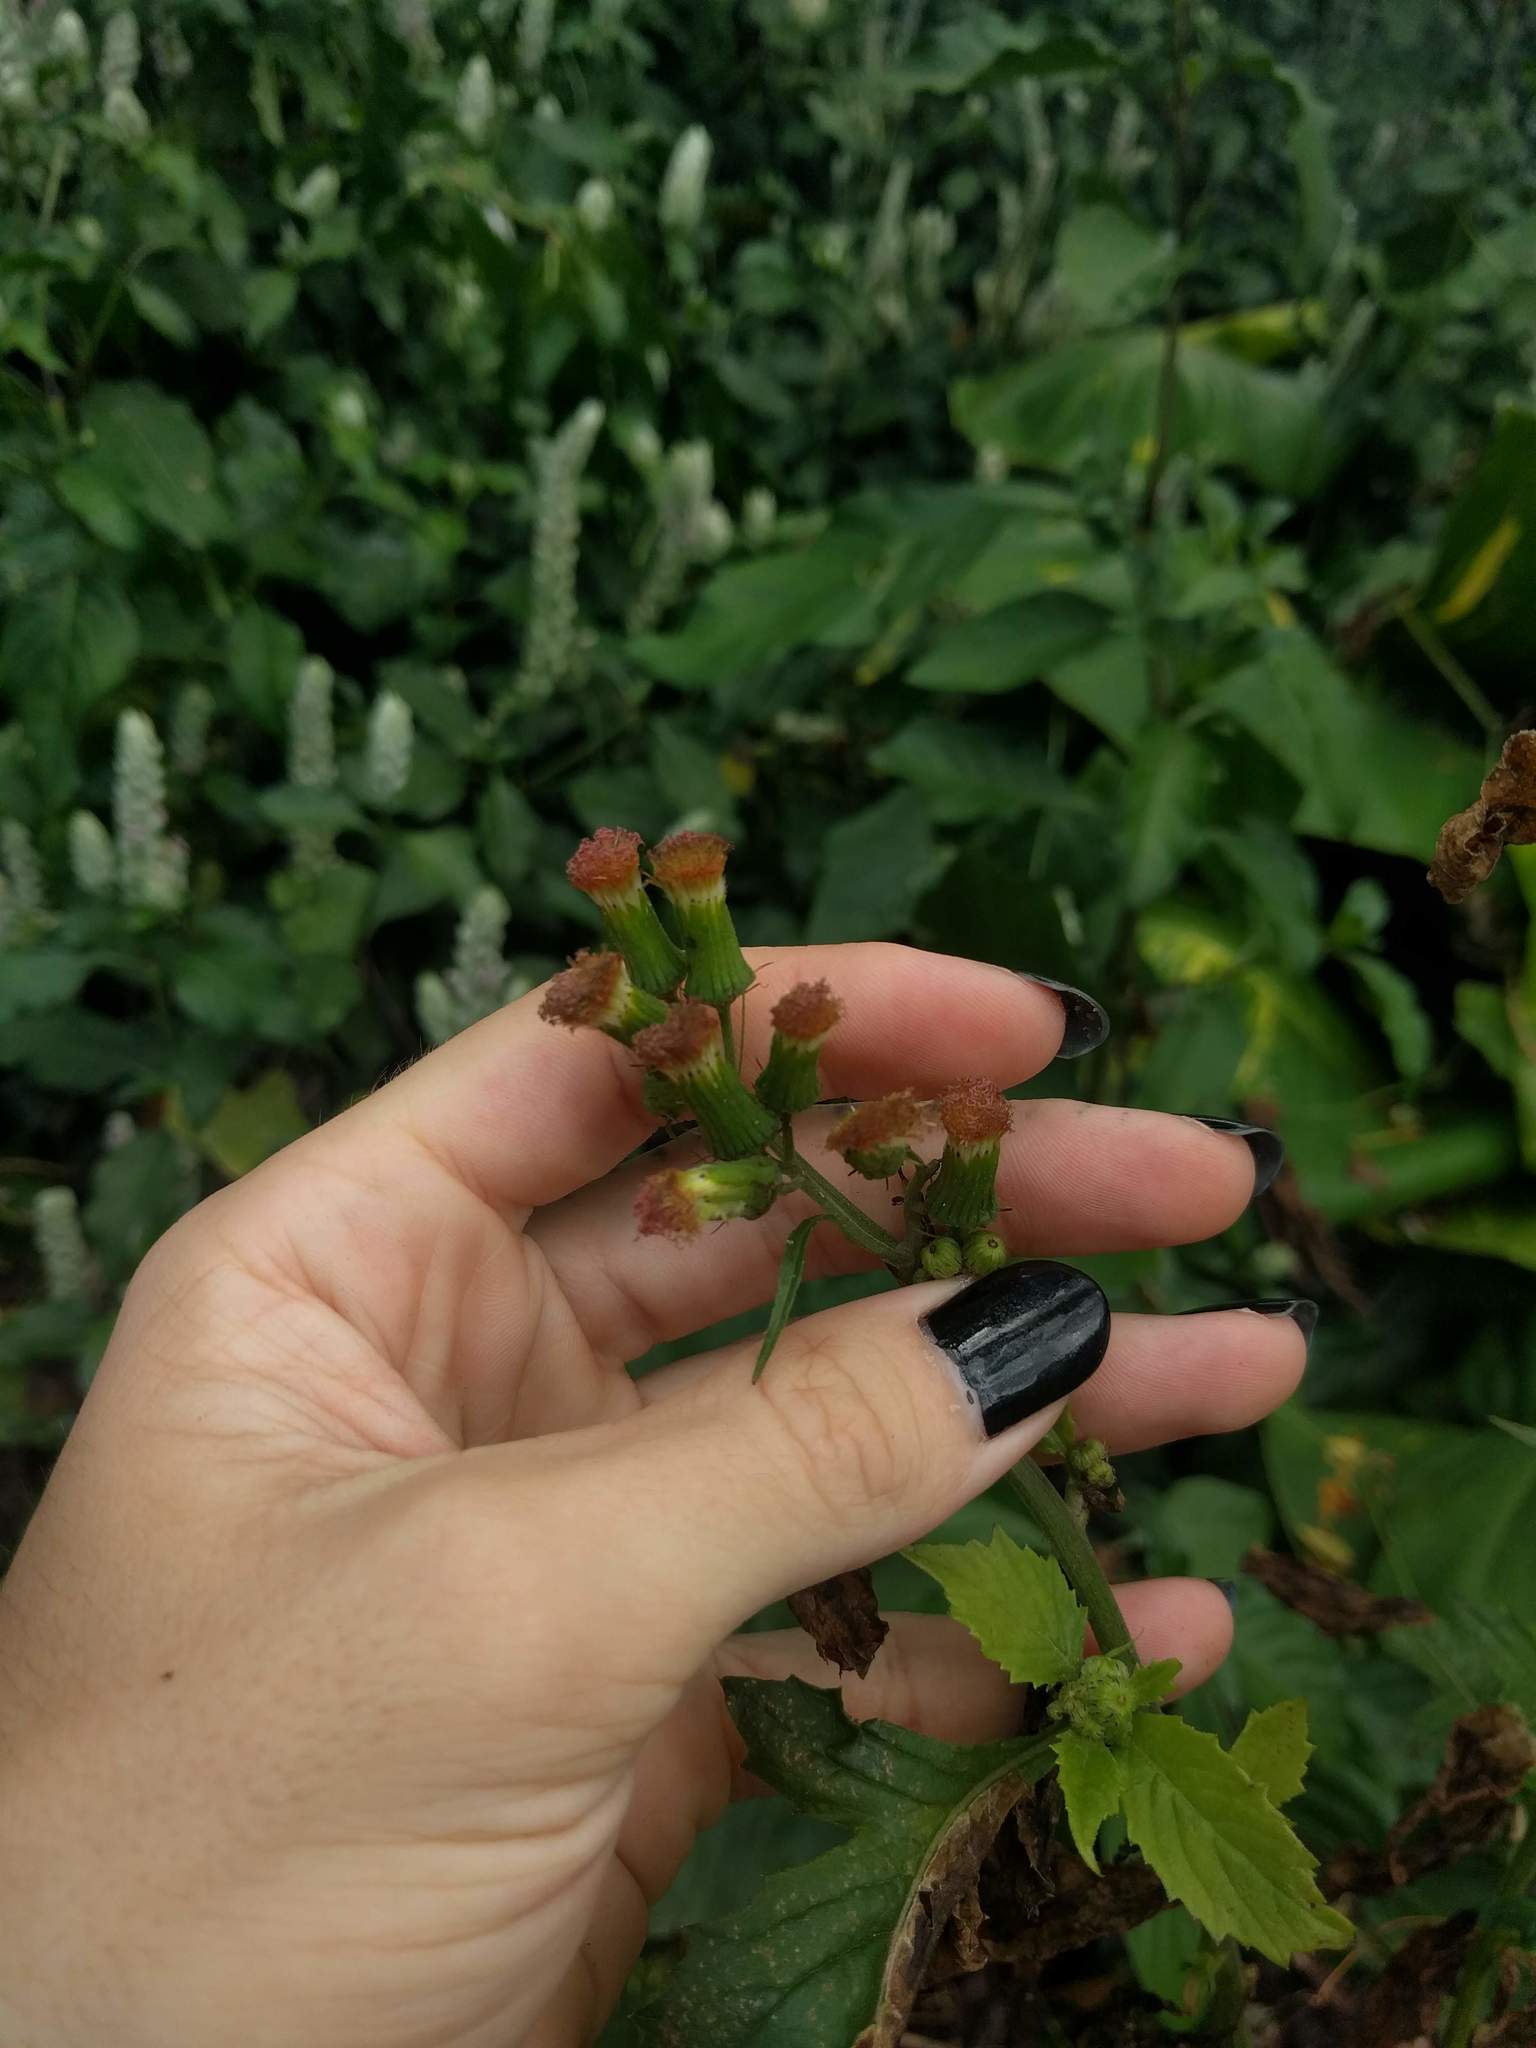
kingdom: Plantae
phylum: Tracheophyta
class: Magnoliopsida
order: Asterales
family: Asteraceae
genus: Crassocephalum
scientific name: Crassocephalum crepidioides
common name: Redflower ragleaf
